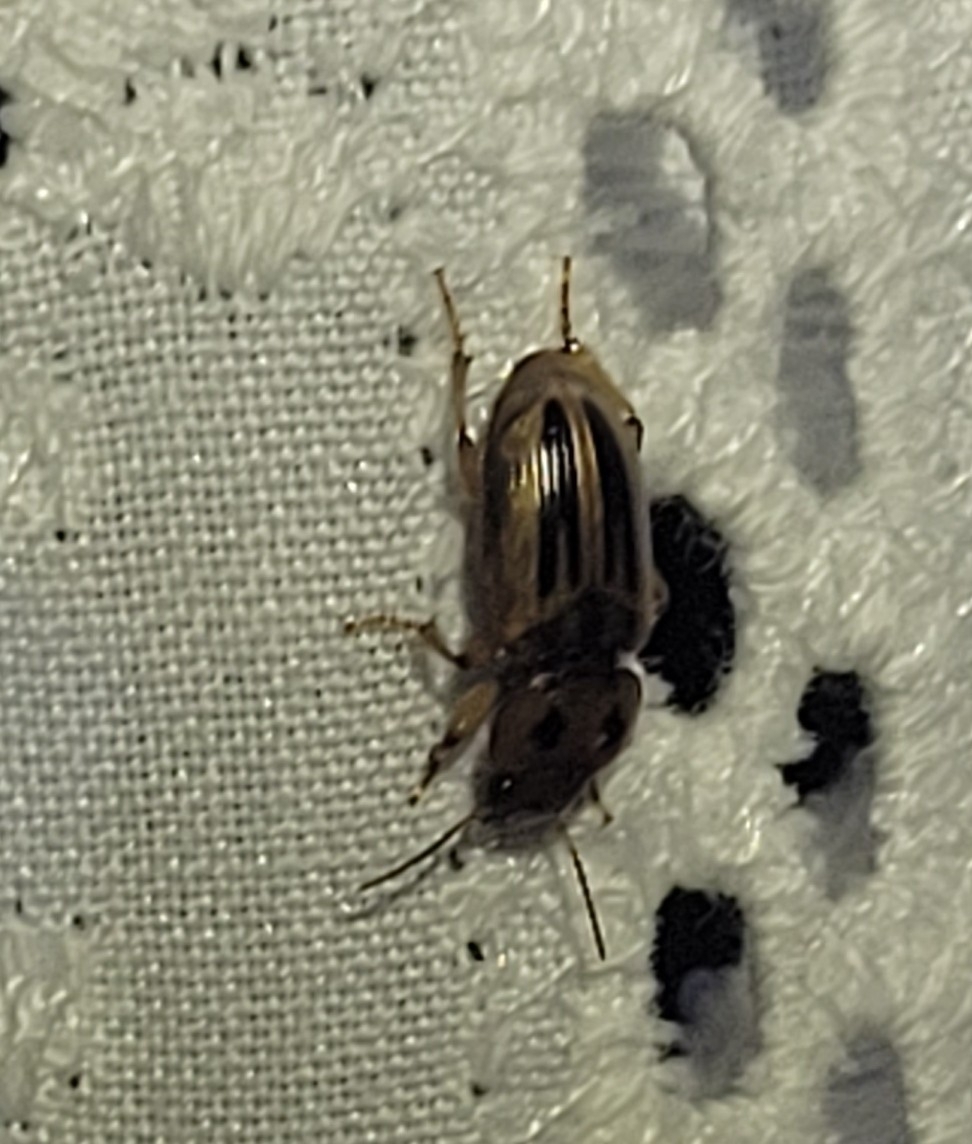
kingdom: Animalia
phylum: Arthropoda
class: Insecta
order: Coleoptera
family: Carabidae
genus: Stenolophus
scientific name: Stenolophus lineola
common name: Lined stenolophus
